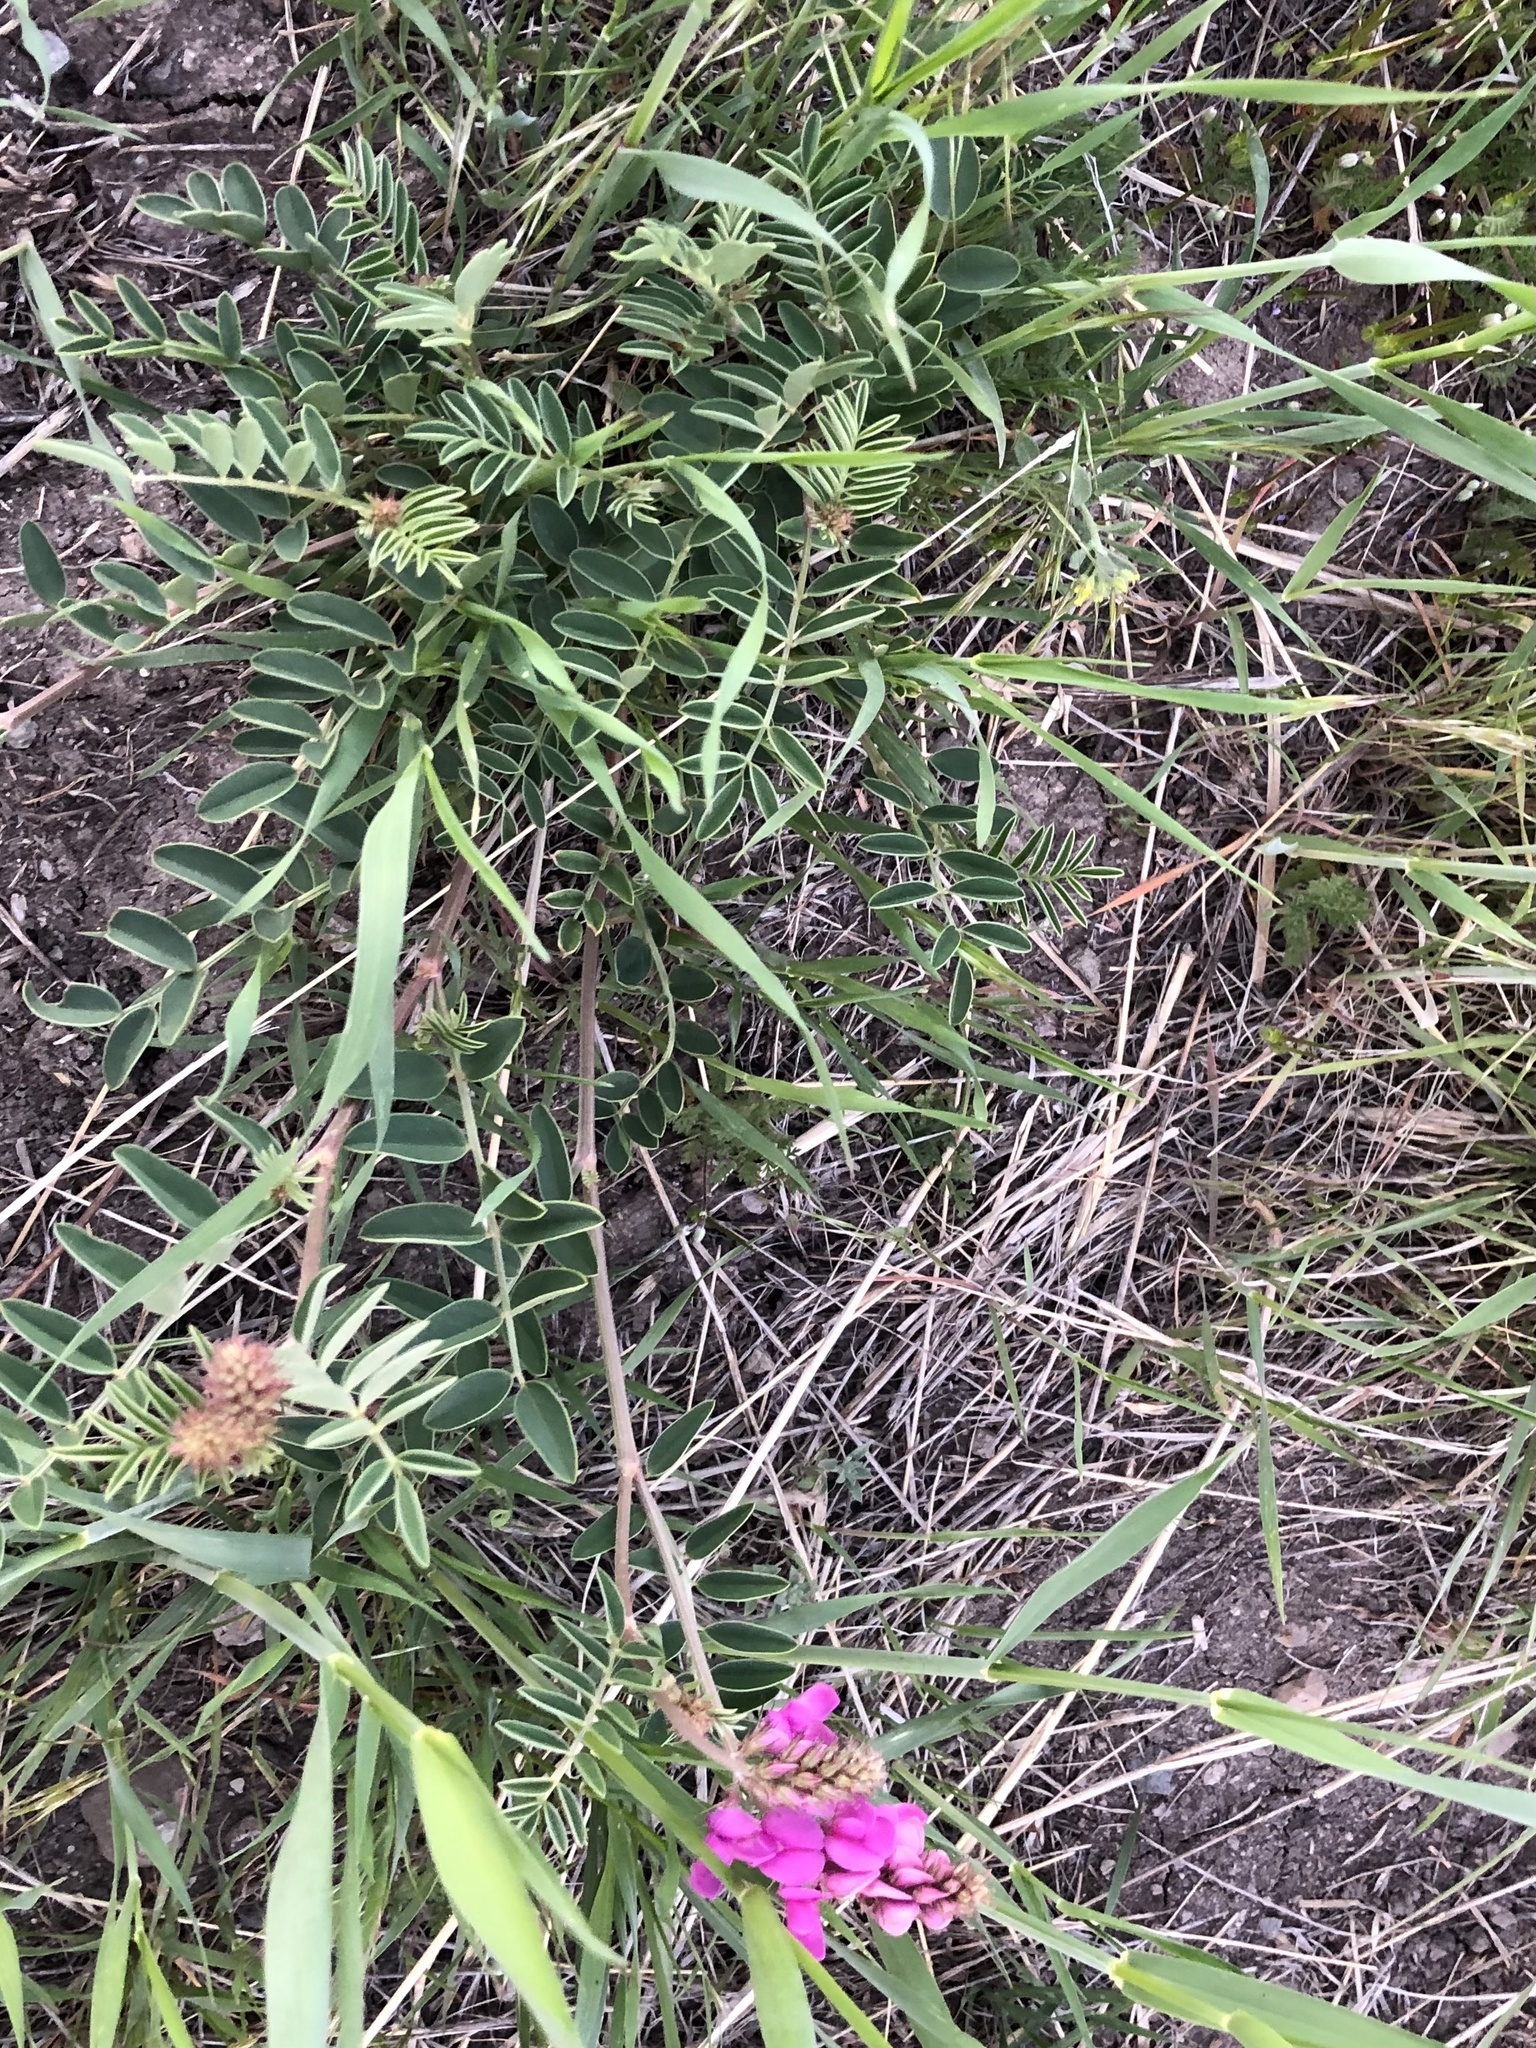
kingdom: Plantae
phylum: Tracheophyta
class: Magnoliopsida
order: Fabales
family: Fabaceae
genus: Hedysarum
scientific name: Hedysarum boreale
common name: Northern sweet-vetch
